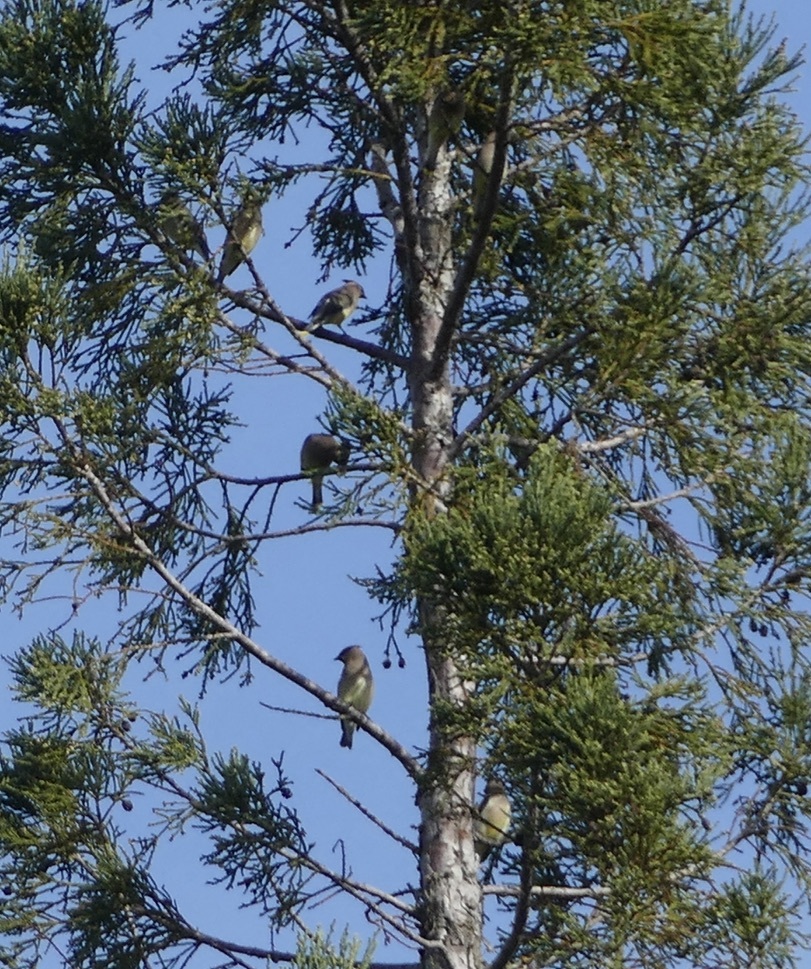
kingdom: Animalia
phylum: Chordata
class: Aves
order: Passeriformes
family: Bombycillidae
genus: Bombycilla
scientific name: Bombycilla cedrorum
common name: Cedar waxwing
